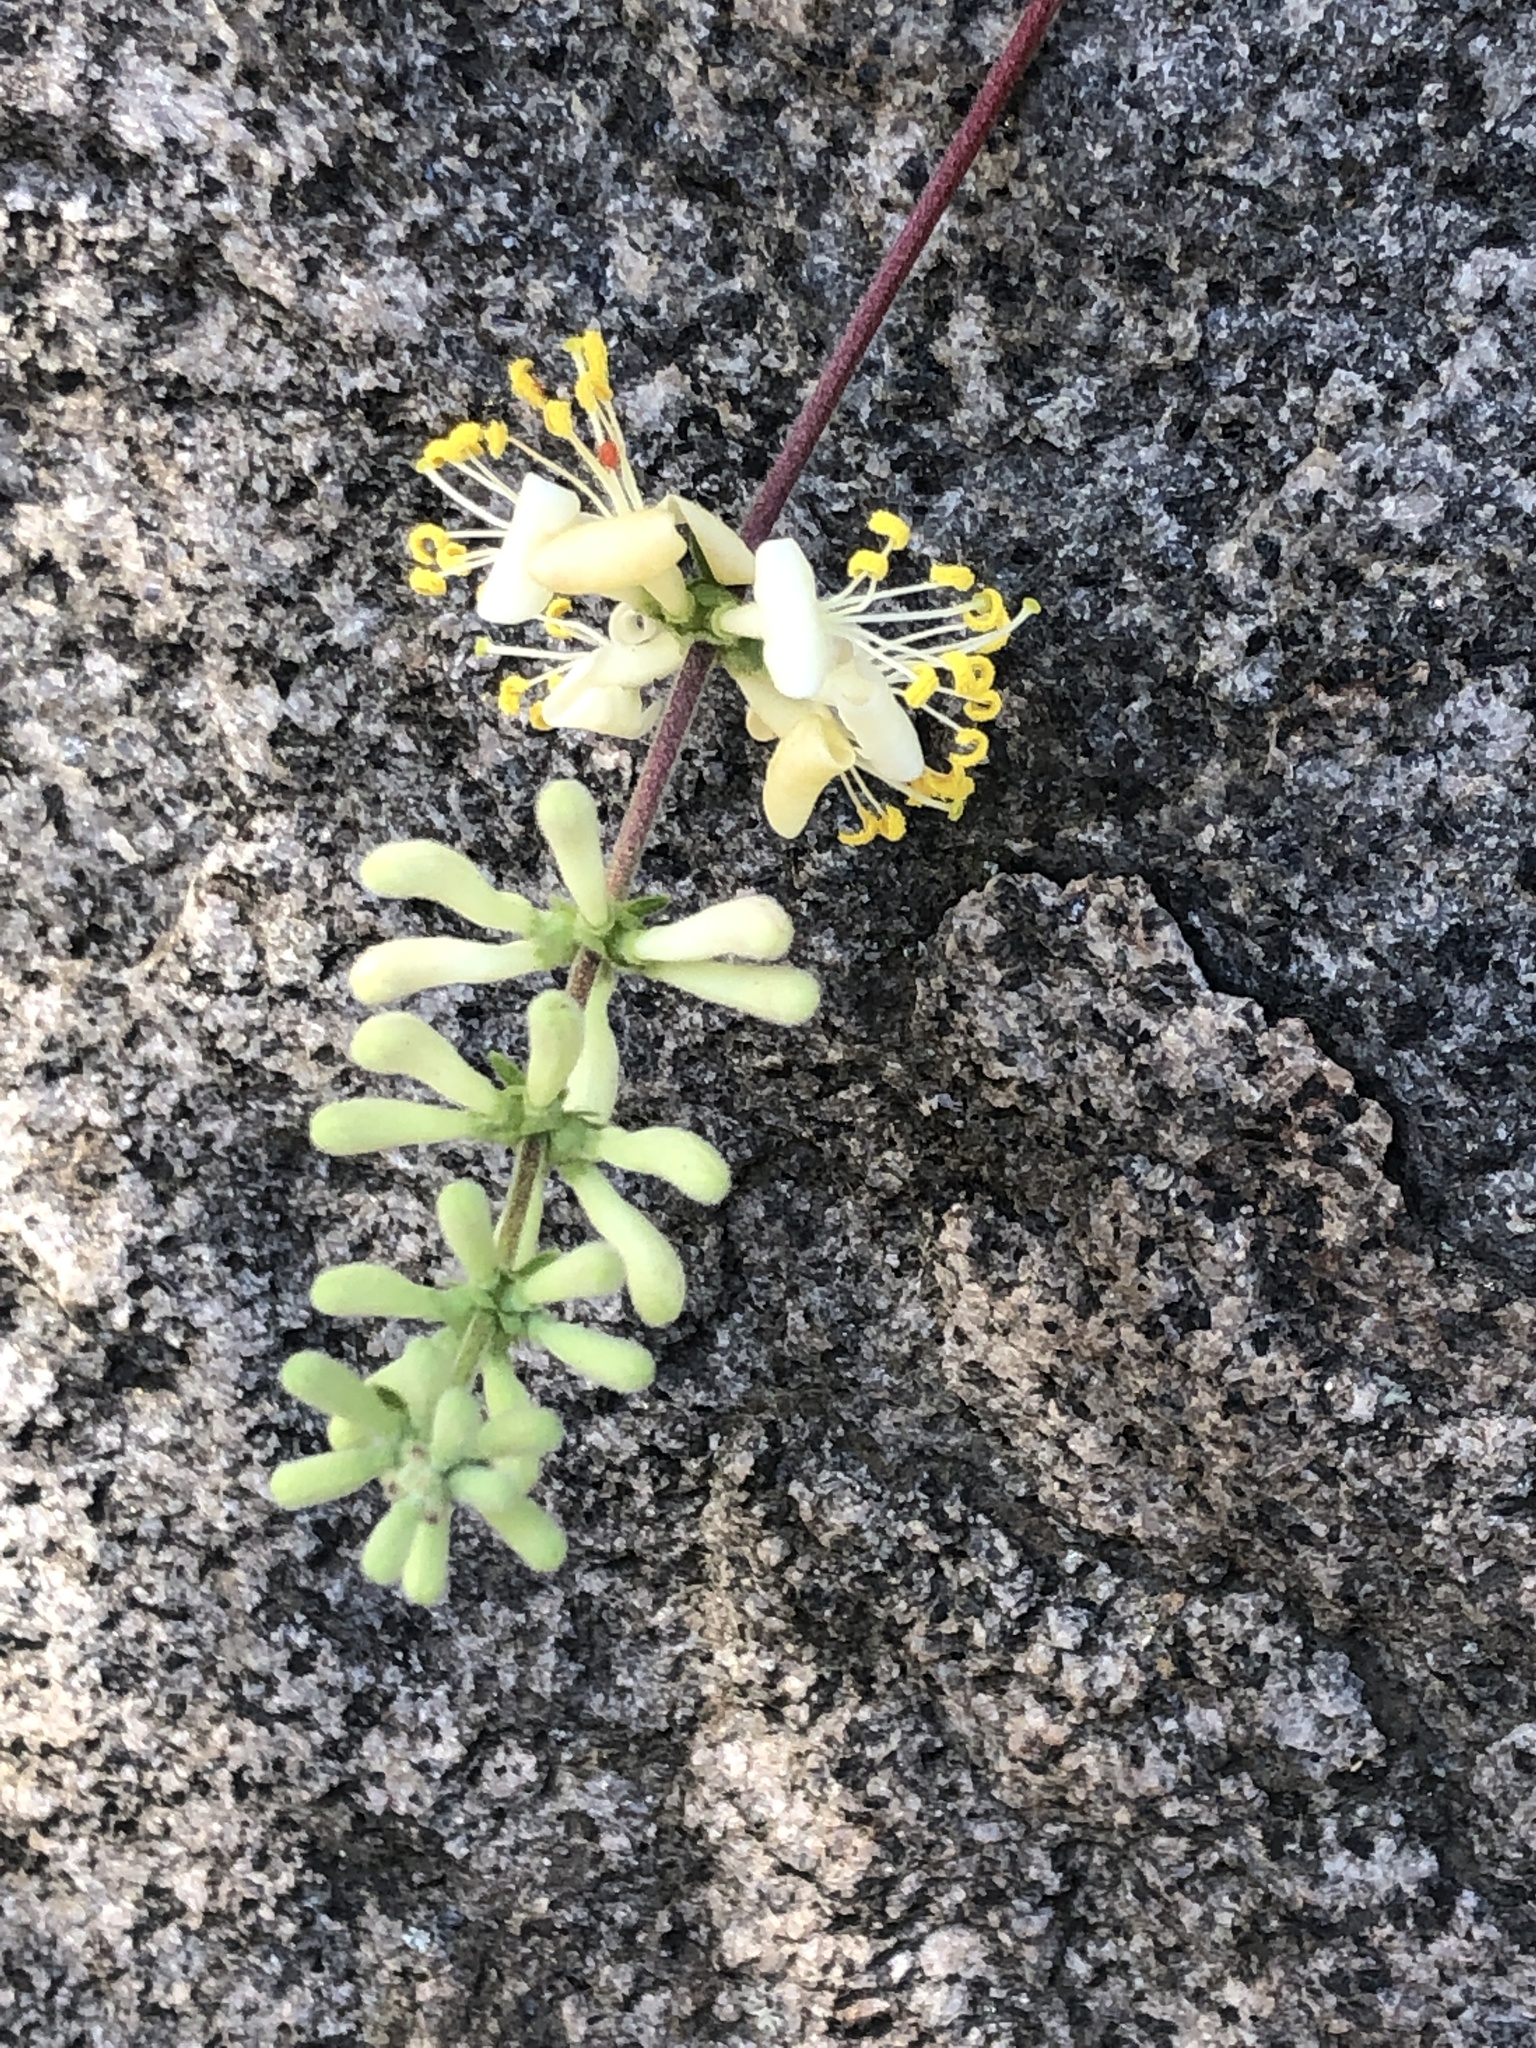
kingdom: Plantae
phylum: Tracheophyta
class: Magnoliopsida
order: Dipsacales
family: Caprifoliaceae
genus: Lonicera
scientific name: Lonicera interrupta
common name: Chaparral honeysuckle
